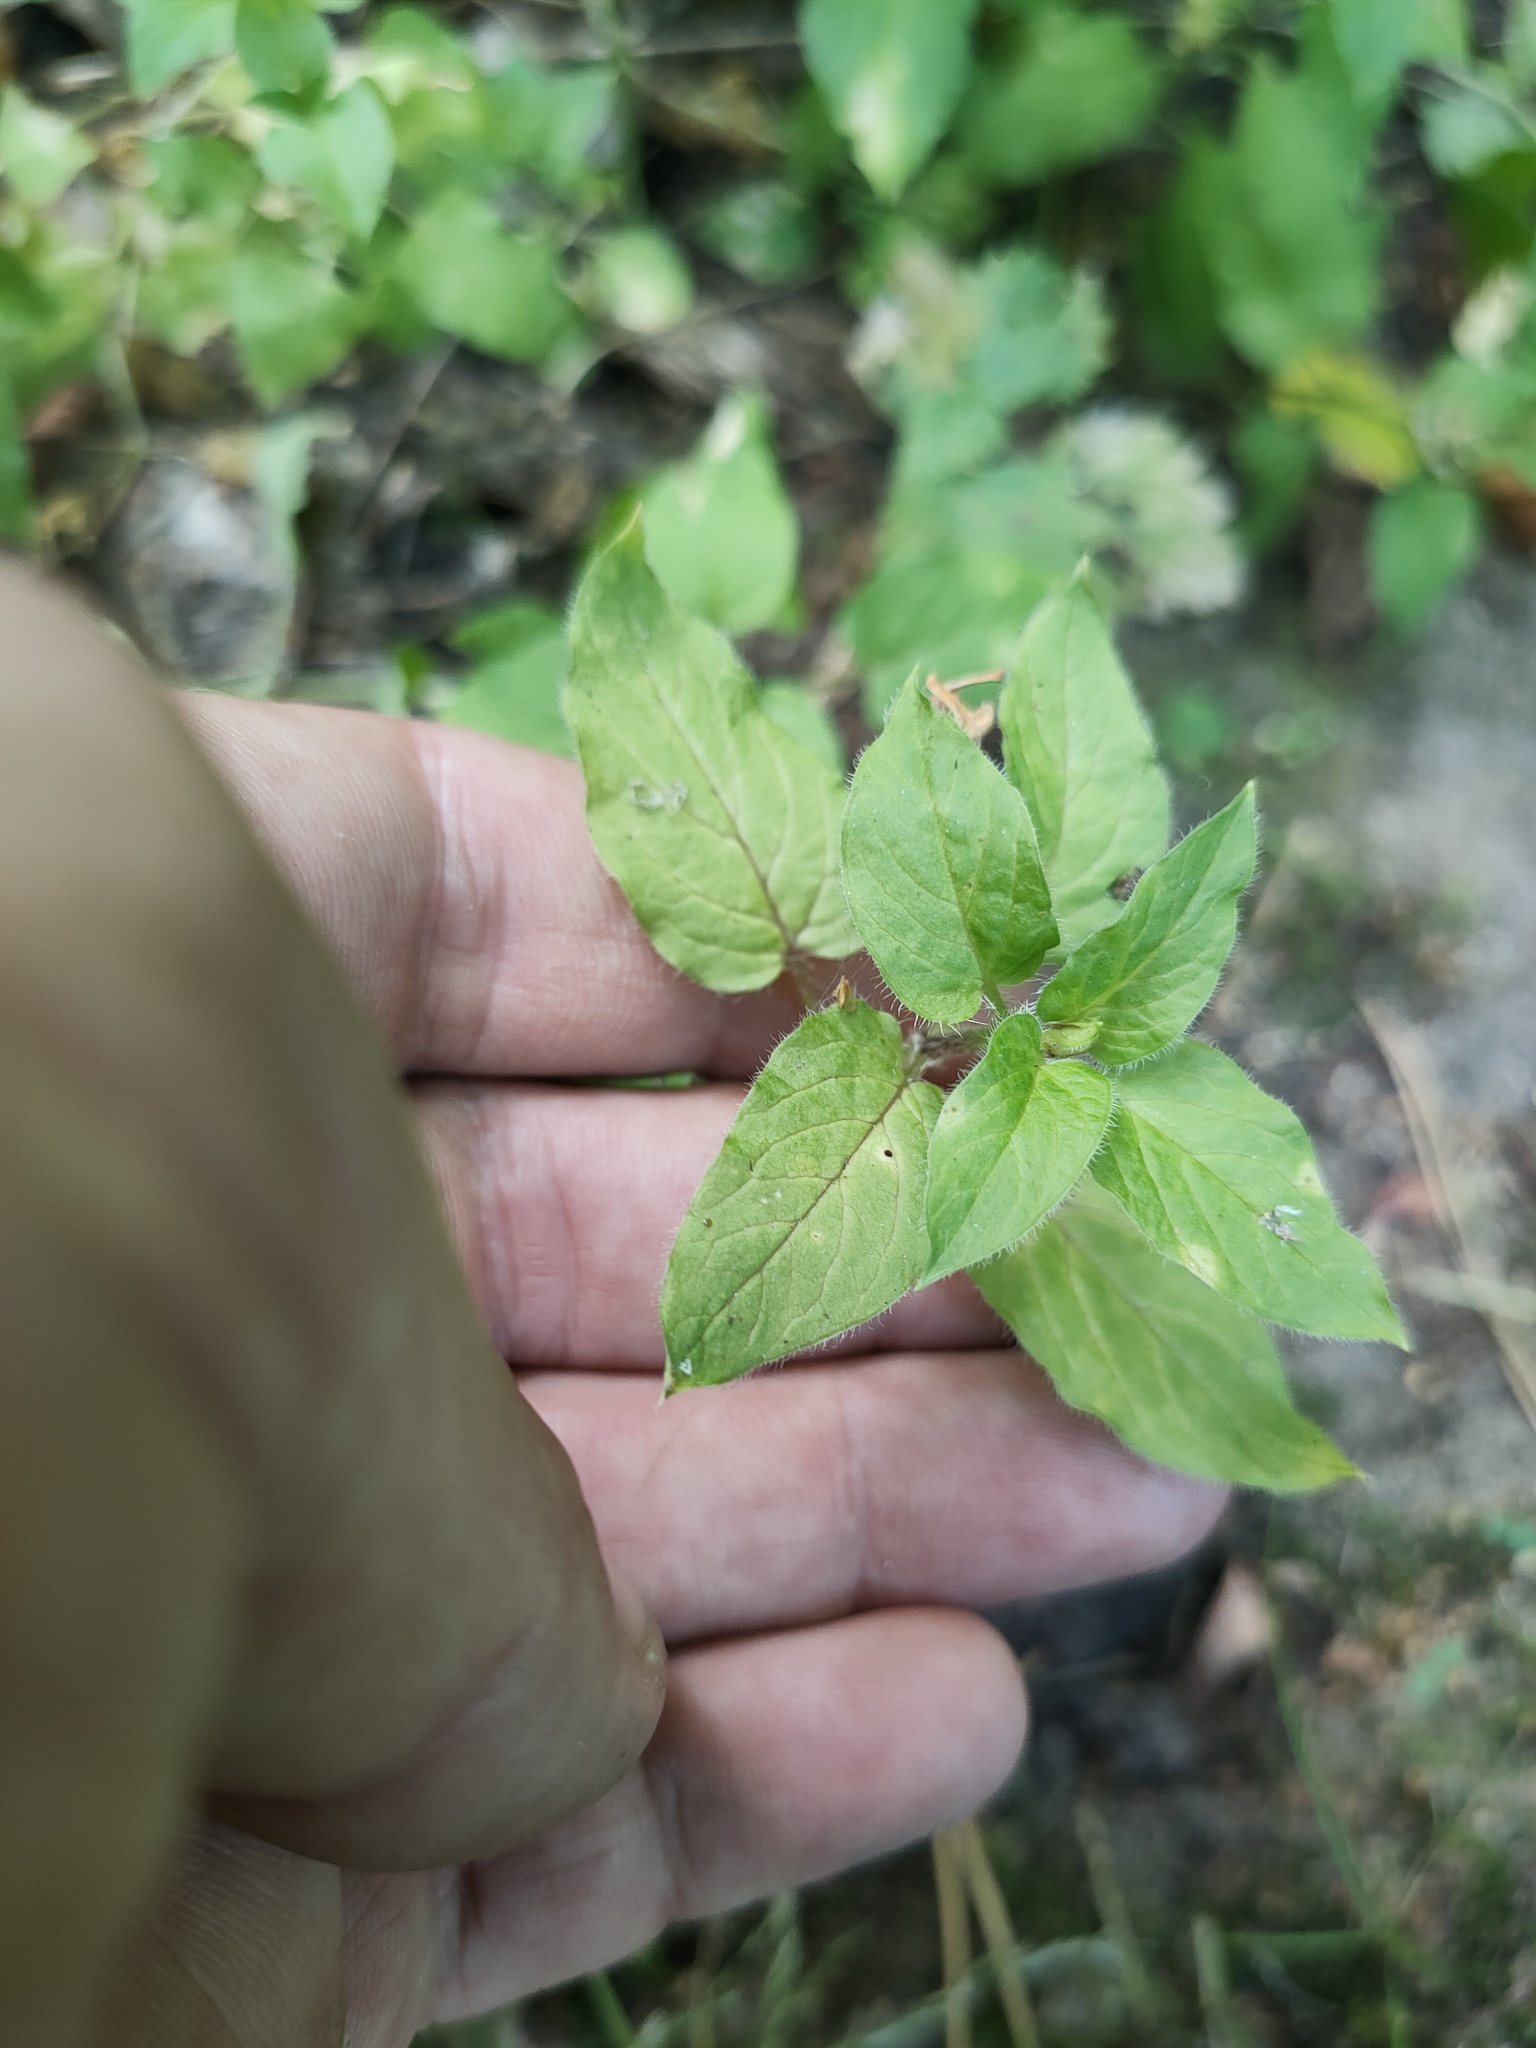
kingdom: Plantae
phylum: Tracheophyta
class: Magnoliopsida
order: Caryophyllales
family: Caryophyllaceae
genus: Stellaria
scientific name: Stellaria nemorum
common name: Wood stitchwort
